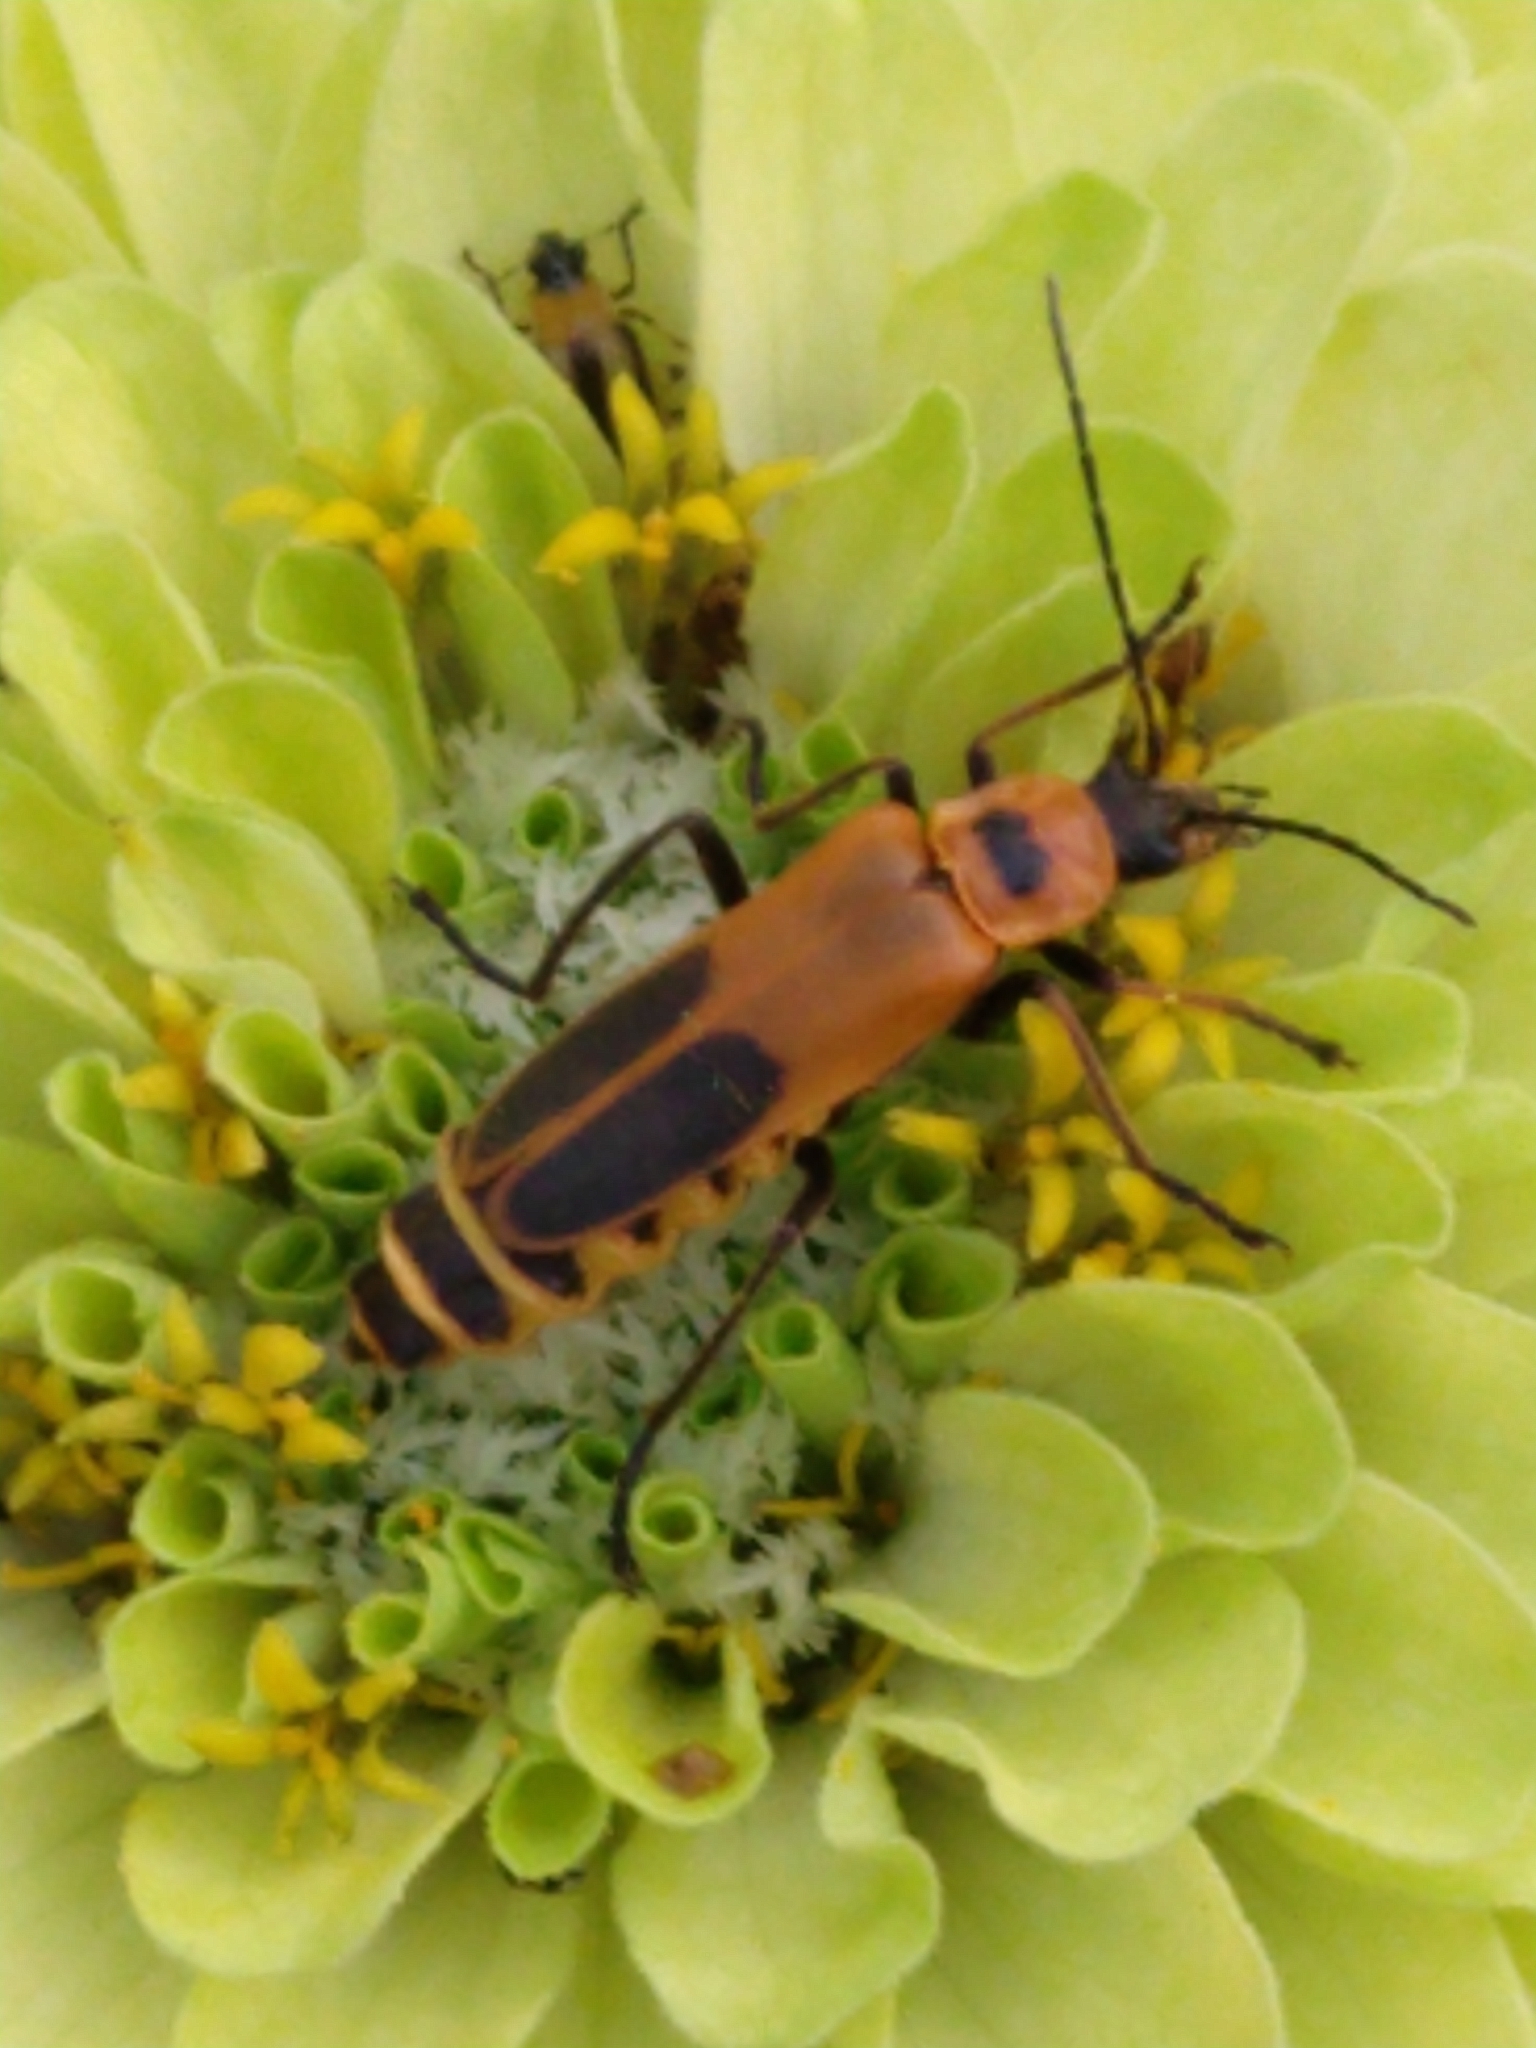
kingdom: Animalia
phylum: Arthropoda
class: Insecta
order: Coleoptera
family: Cantharidae
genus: Chauliognathus
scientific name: Chauliognathus pensylvanicus
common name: Goldenrod soldier beetle
